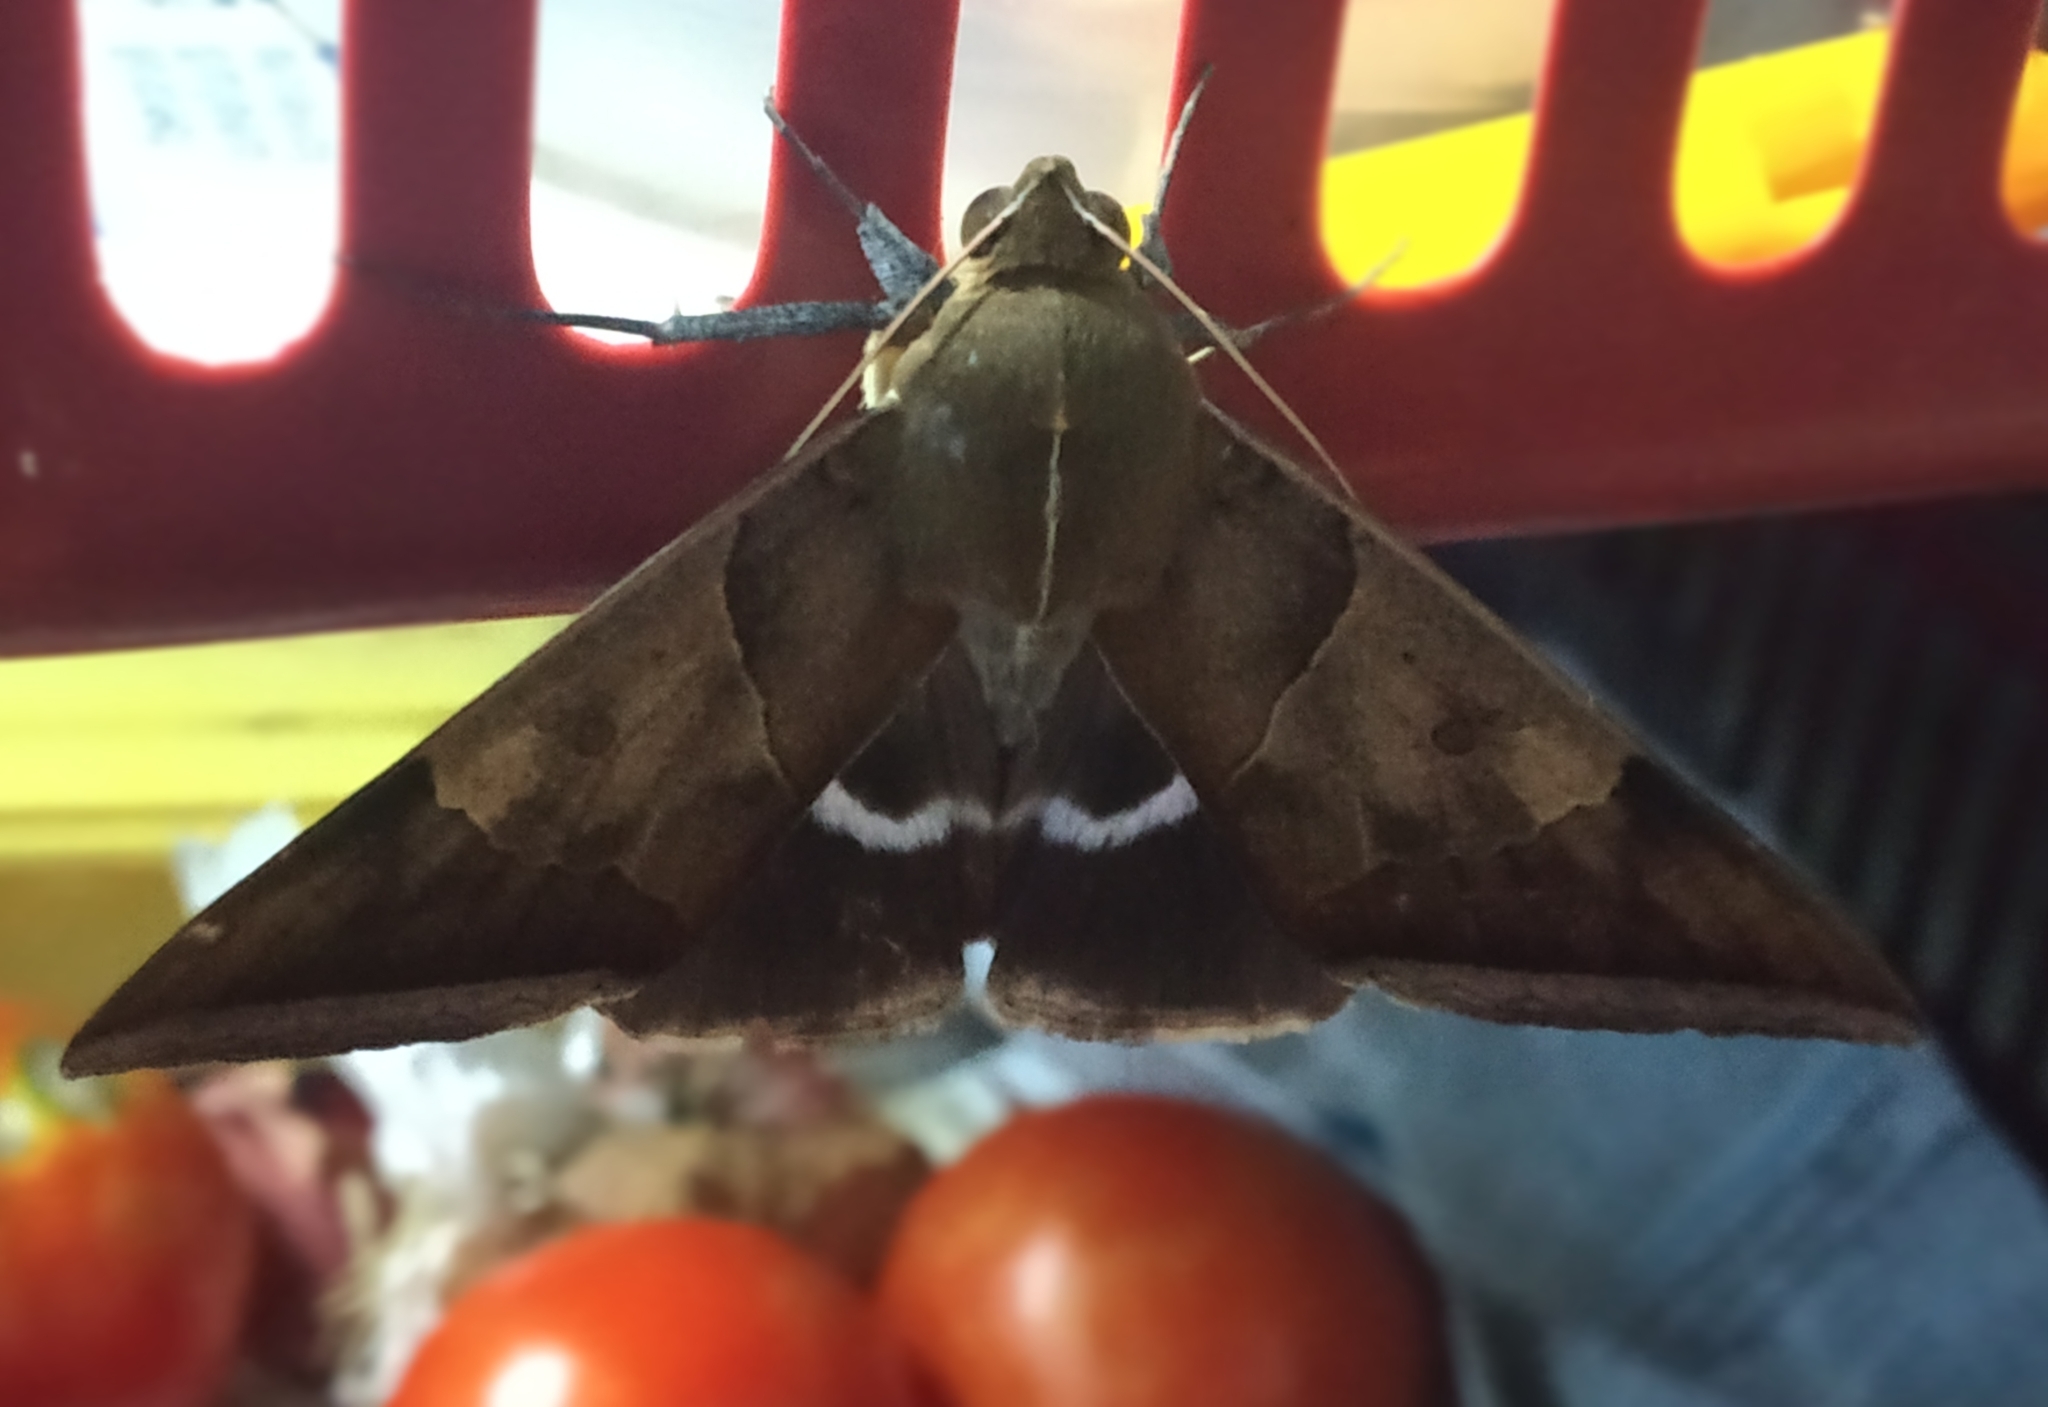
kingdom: Animalia
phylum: Arthropoda
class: Insecta
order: Lepidoptera
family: Erebidae
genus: Artena
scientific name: Artena dotata
